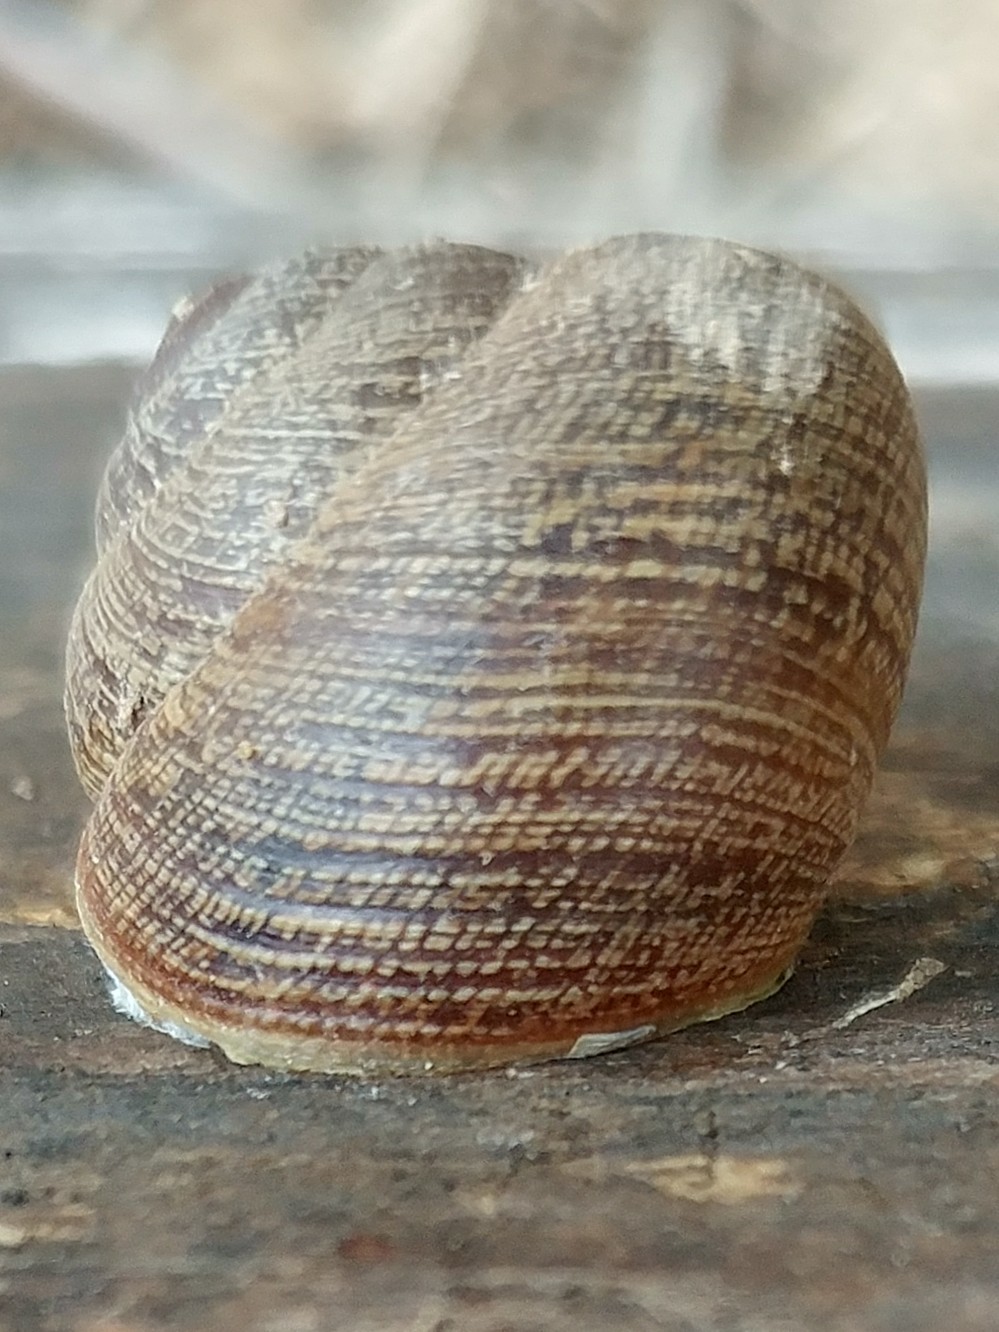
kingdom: Animalia
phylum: Mollusca
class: Gastropoda
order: Stylommatophora
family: Xanthonychidae
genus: Xerarionta
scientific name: Xerarionta intercisa
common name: Plain cactus snail
